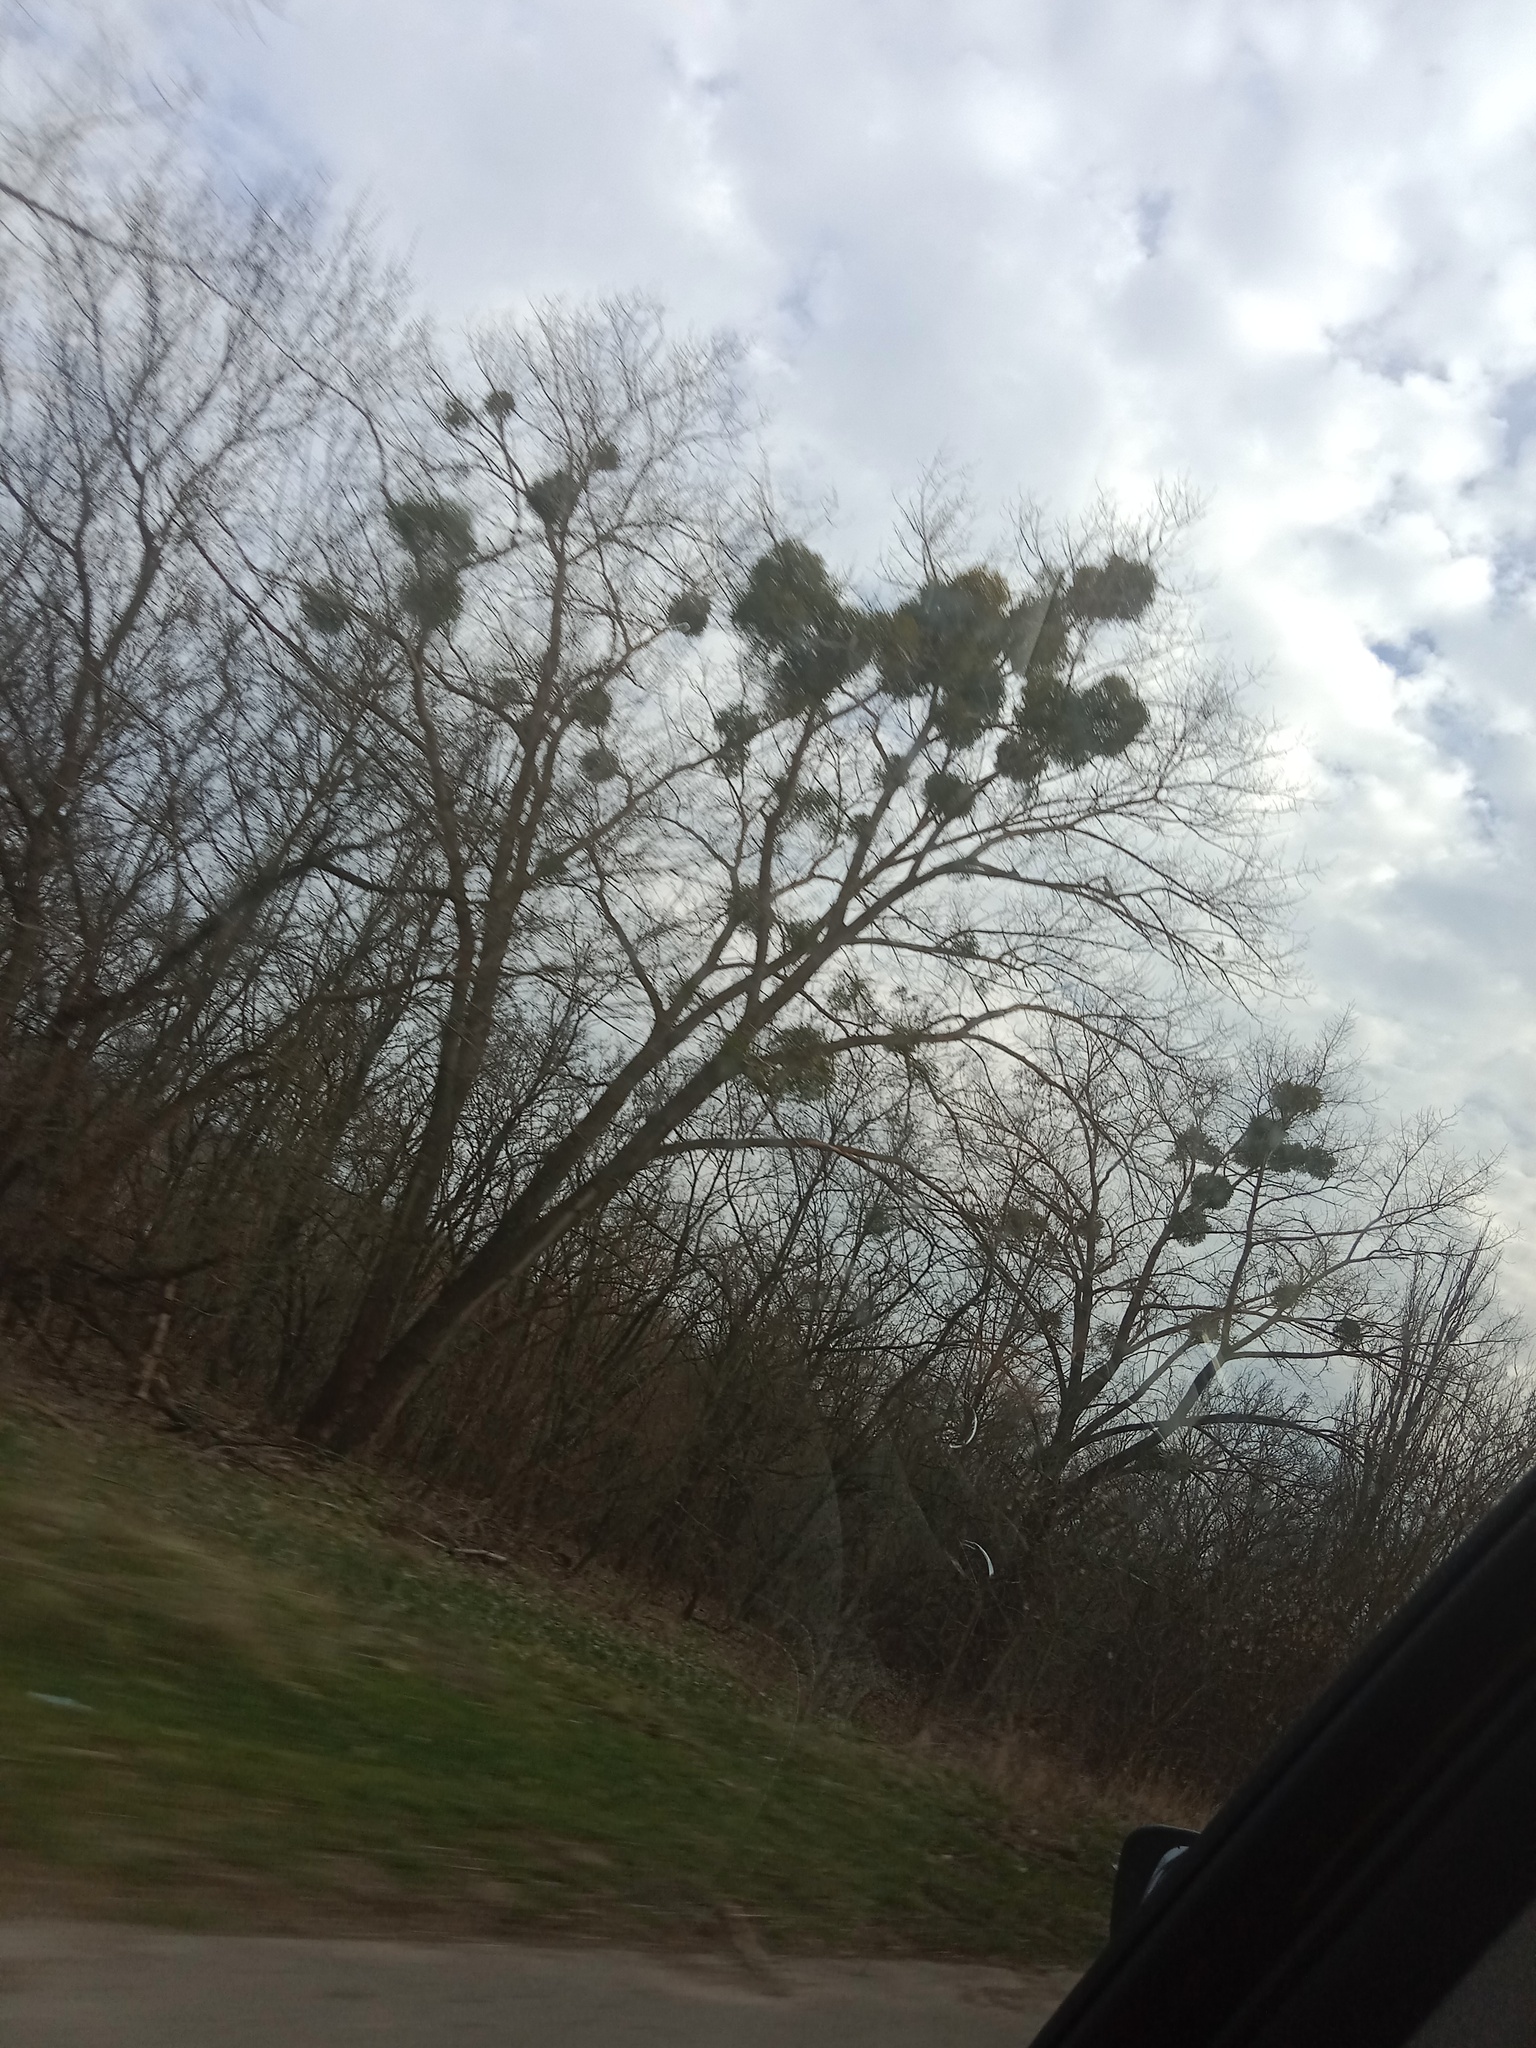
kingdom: Plantae
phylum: Tracheophyta
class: Magnoliopsida
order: Santalales
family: Viscaceae
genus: Viscum
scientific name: Viscum album
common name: Mistletoe
